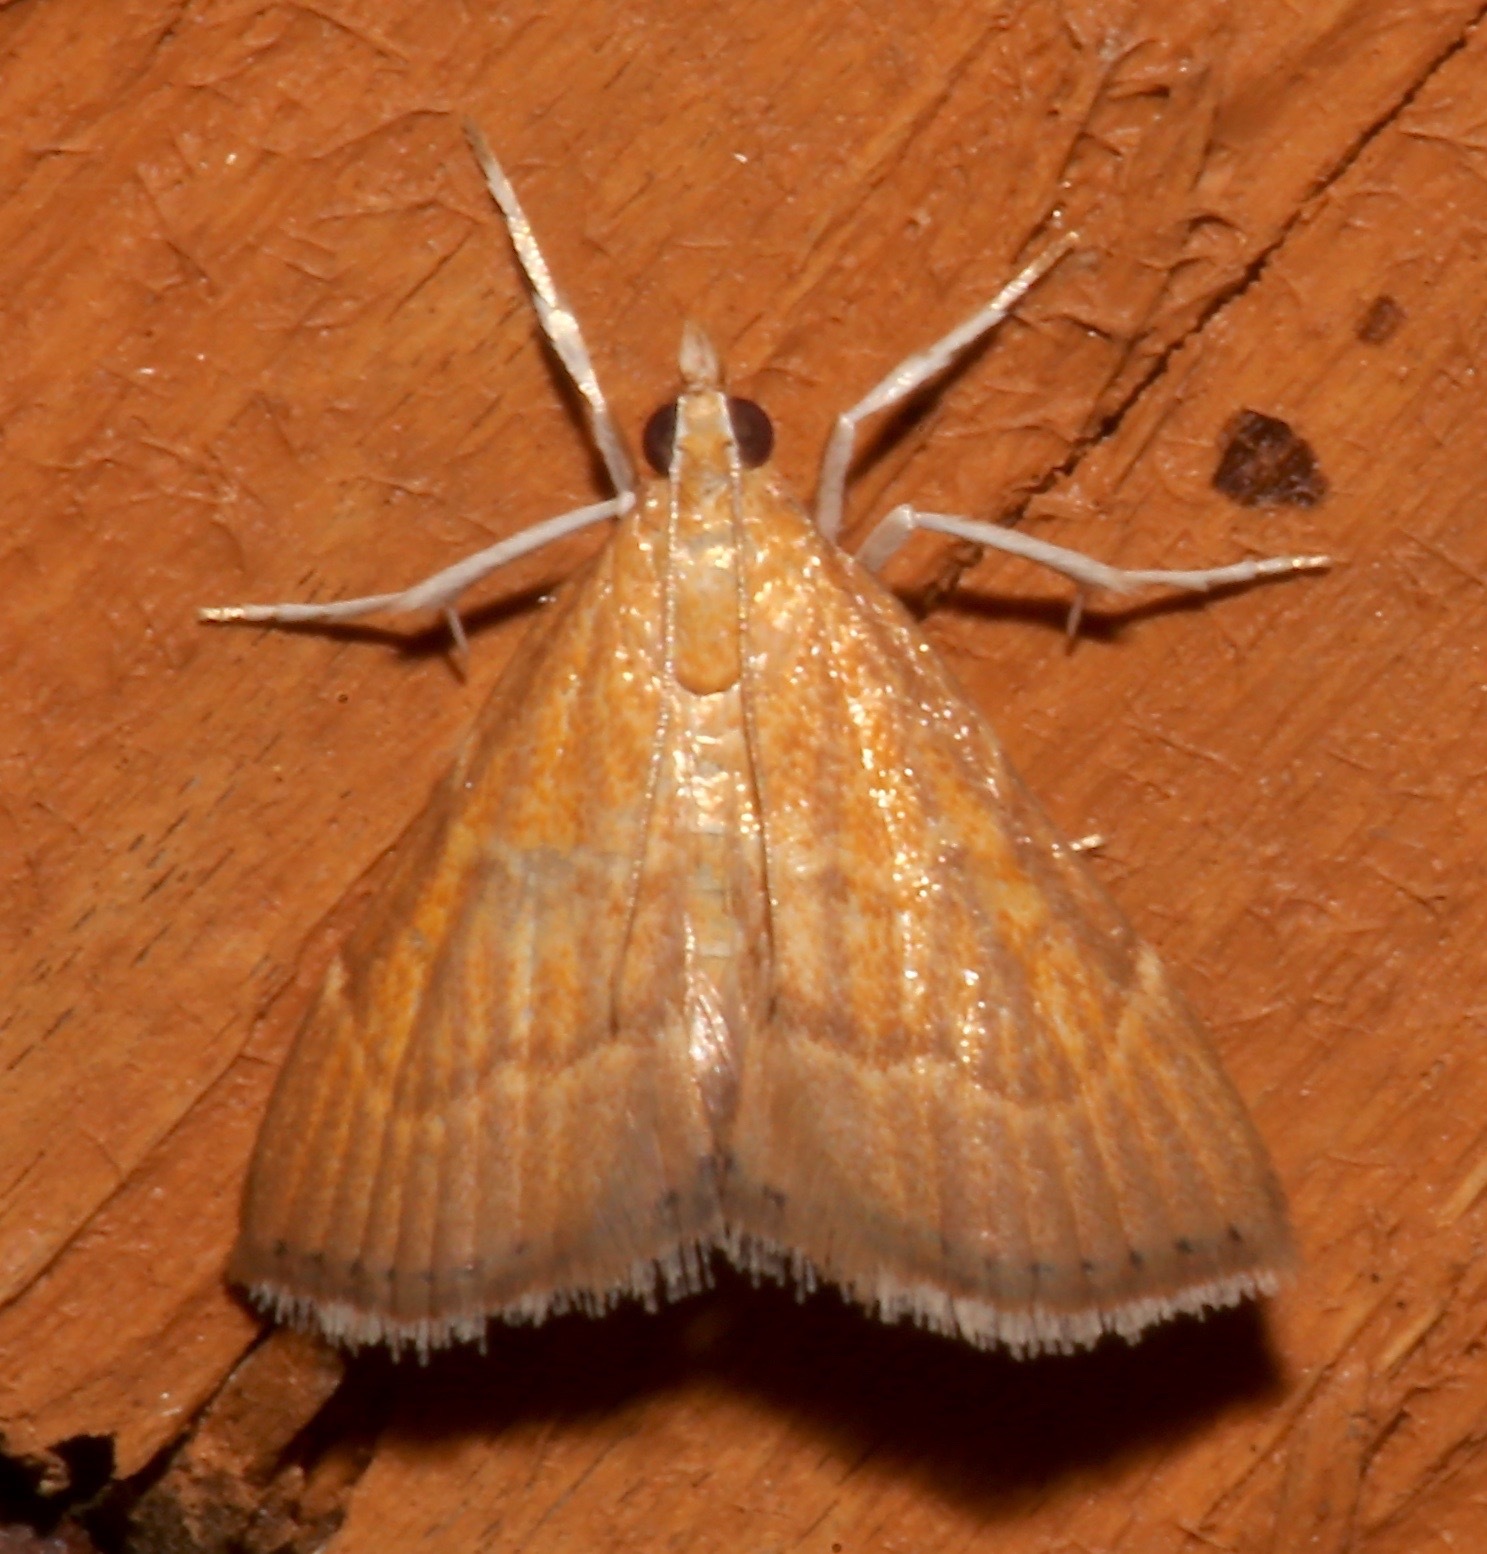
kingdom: Animalia
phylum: Arthropoda
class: Insecta
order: Lepidoptera
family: Crambidae
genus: Glaphyria
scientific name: Glaphyria invisalis
